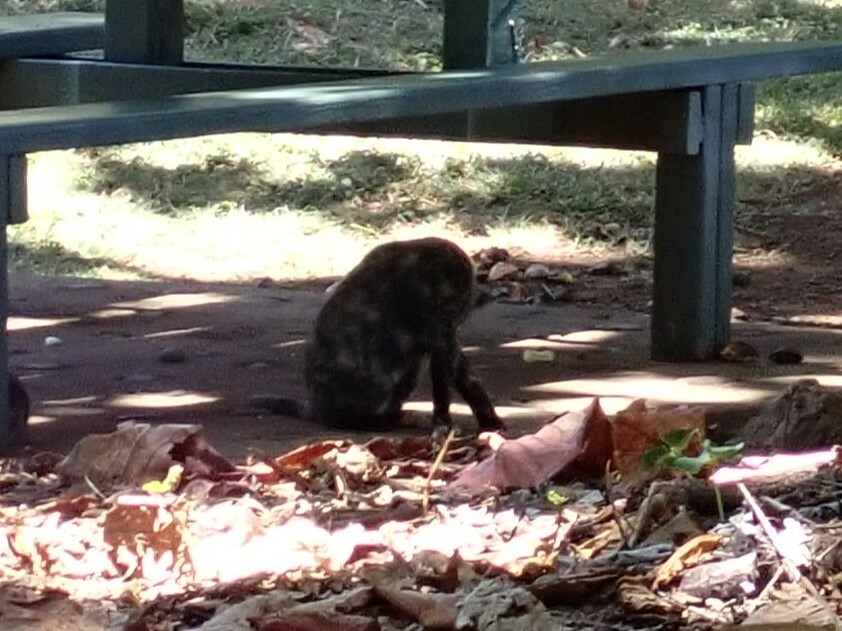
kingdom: Animalia
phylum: Chordata
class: Mammalia
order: Carnivora
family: Felidae
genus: Felis
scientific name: Felis catus
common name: Domestic cat
